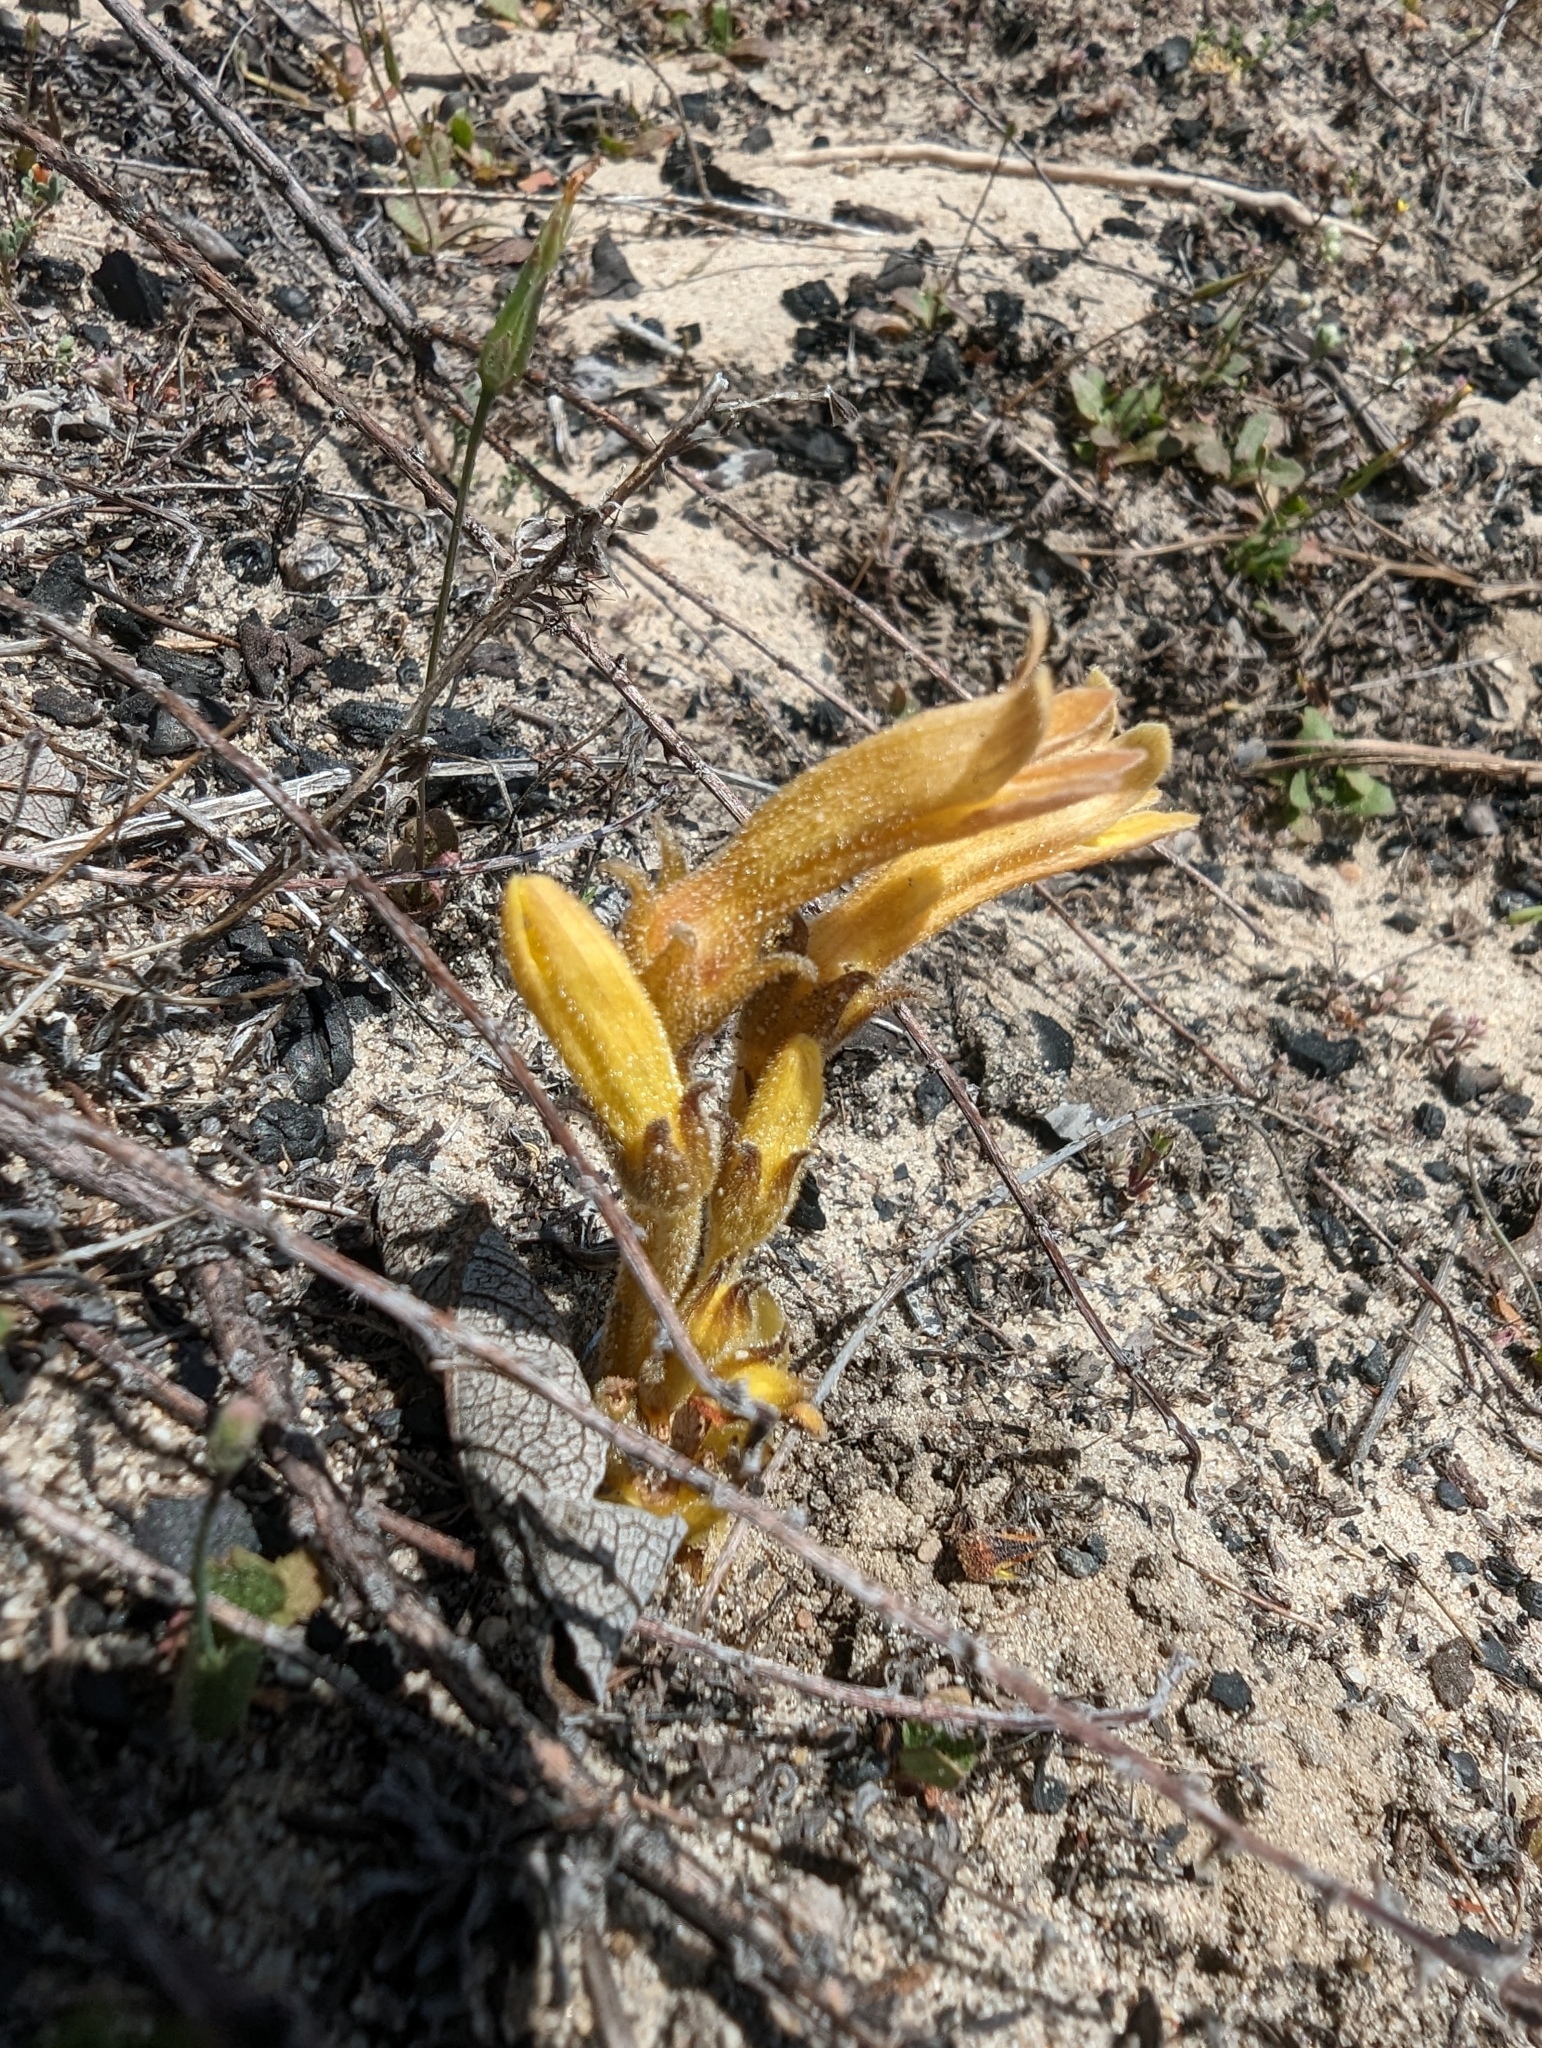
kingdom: Plantae
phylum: Tracheophyta
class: Magnoliopsida
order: Lamiales
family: Orobanchaceae
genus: Aphyllon
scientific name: Aphyllon franciscanum
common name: San francisco broomrape
